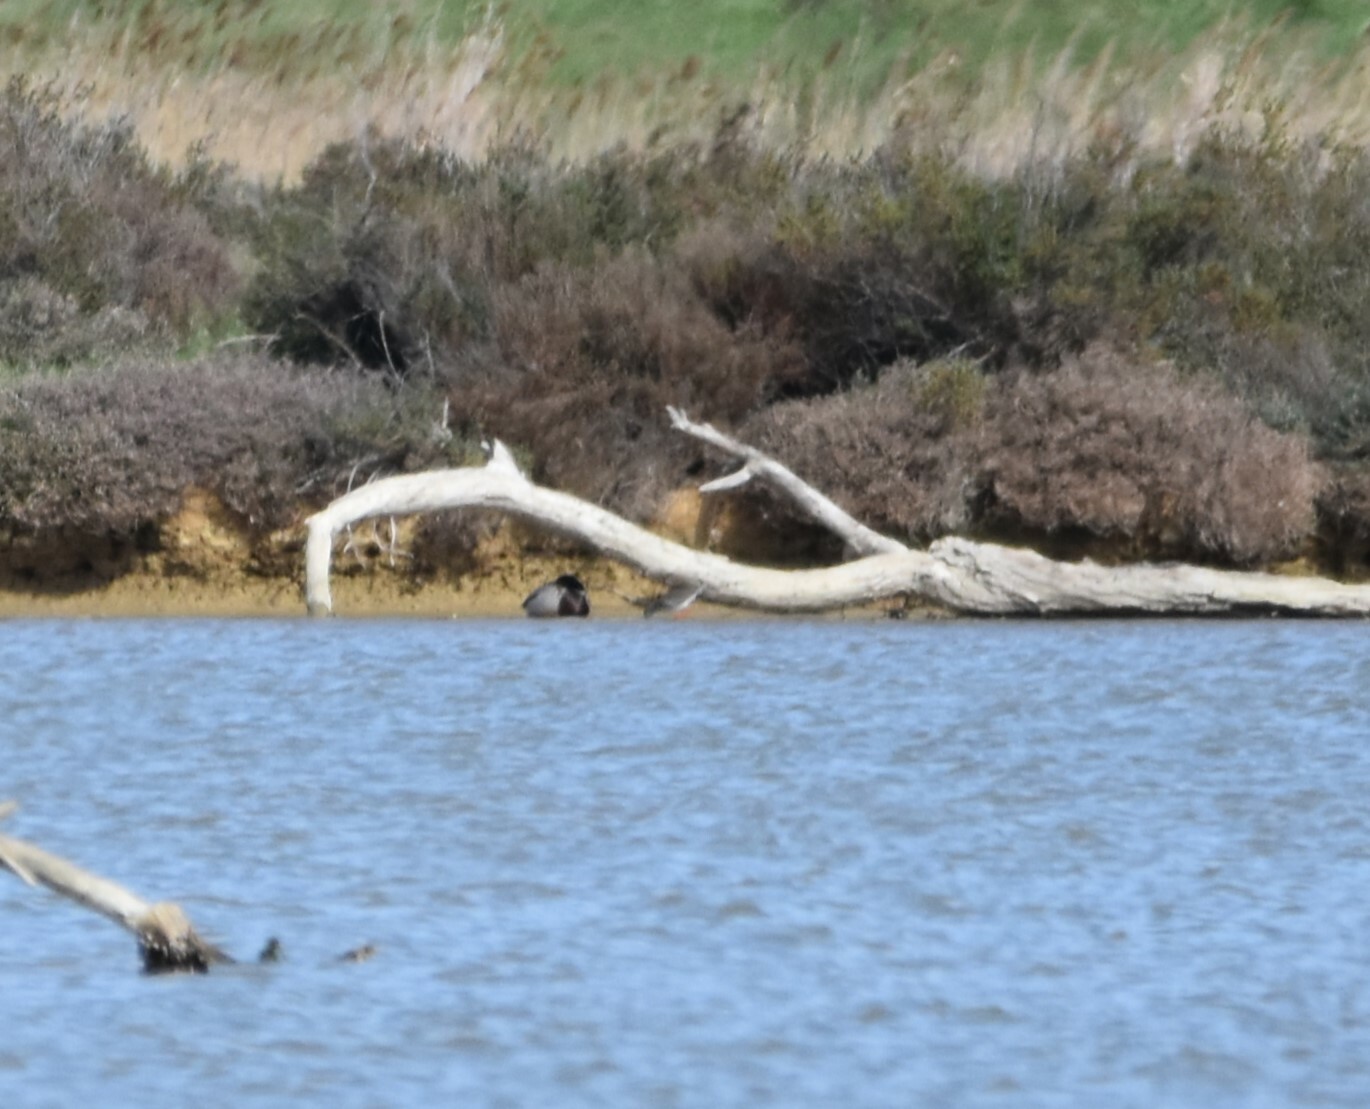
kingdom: Animalia
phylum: Chordata
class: Aves
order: Charadriiformes
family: Scolopacidae
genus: Tringa
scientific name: Tringa totanus
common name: Common redshank
